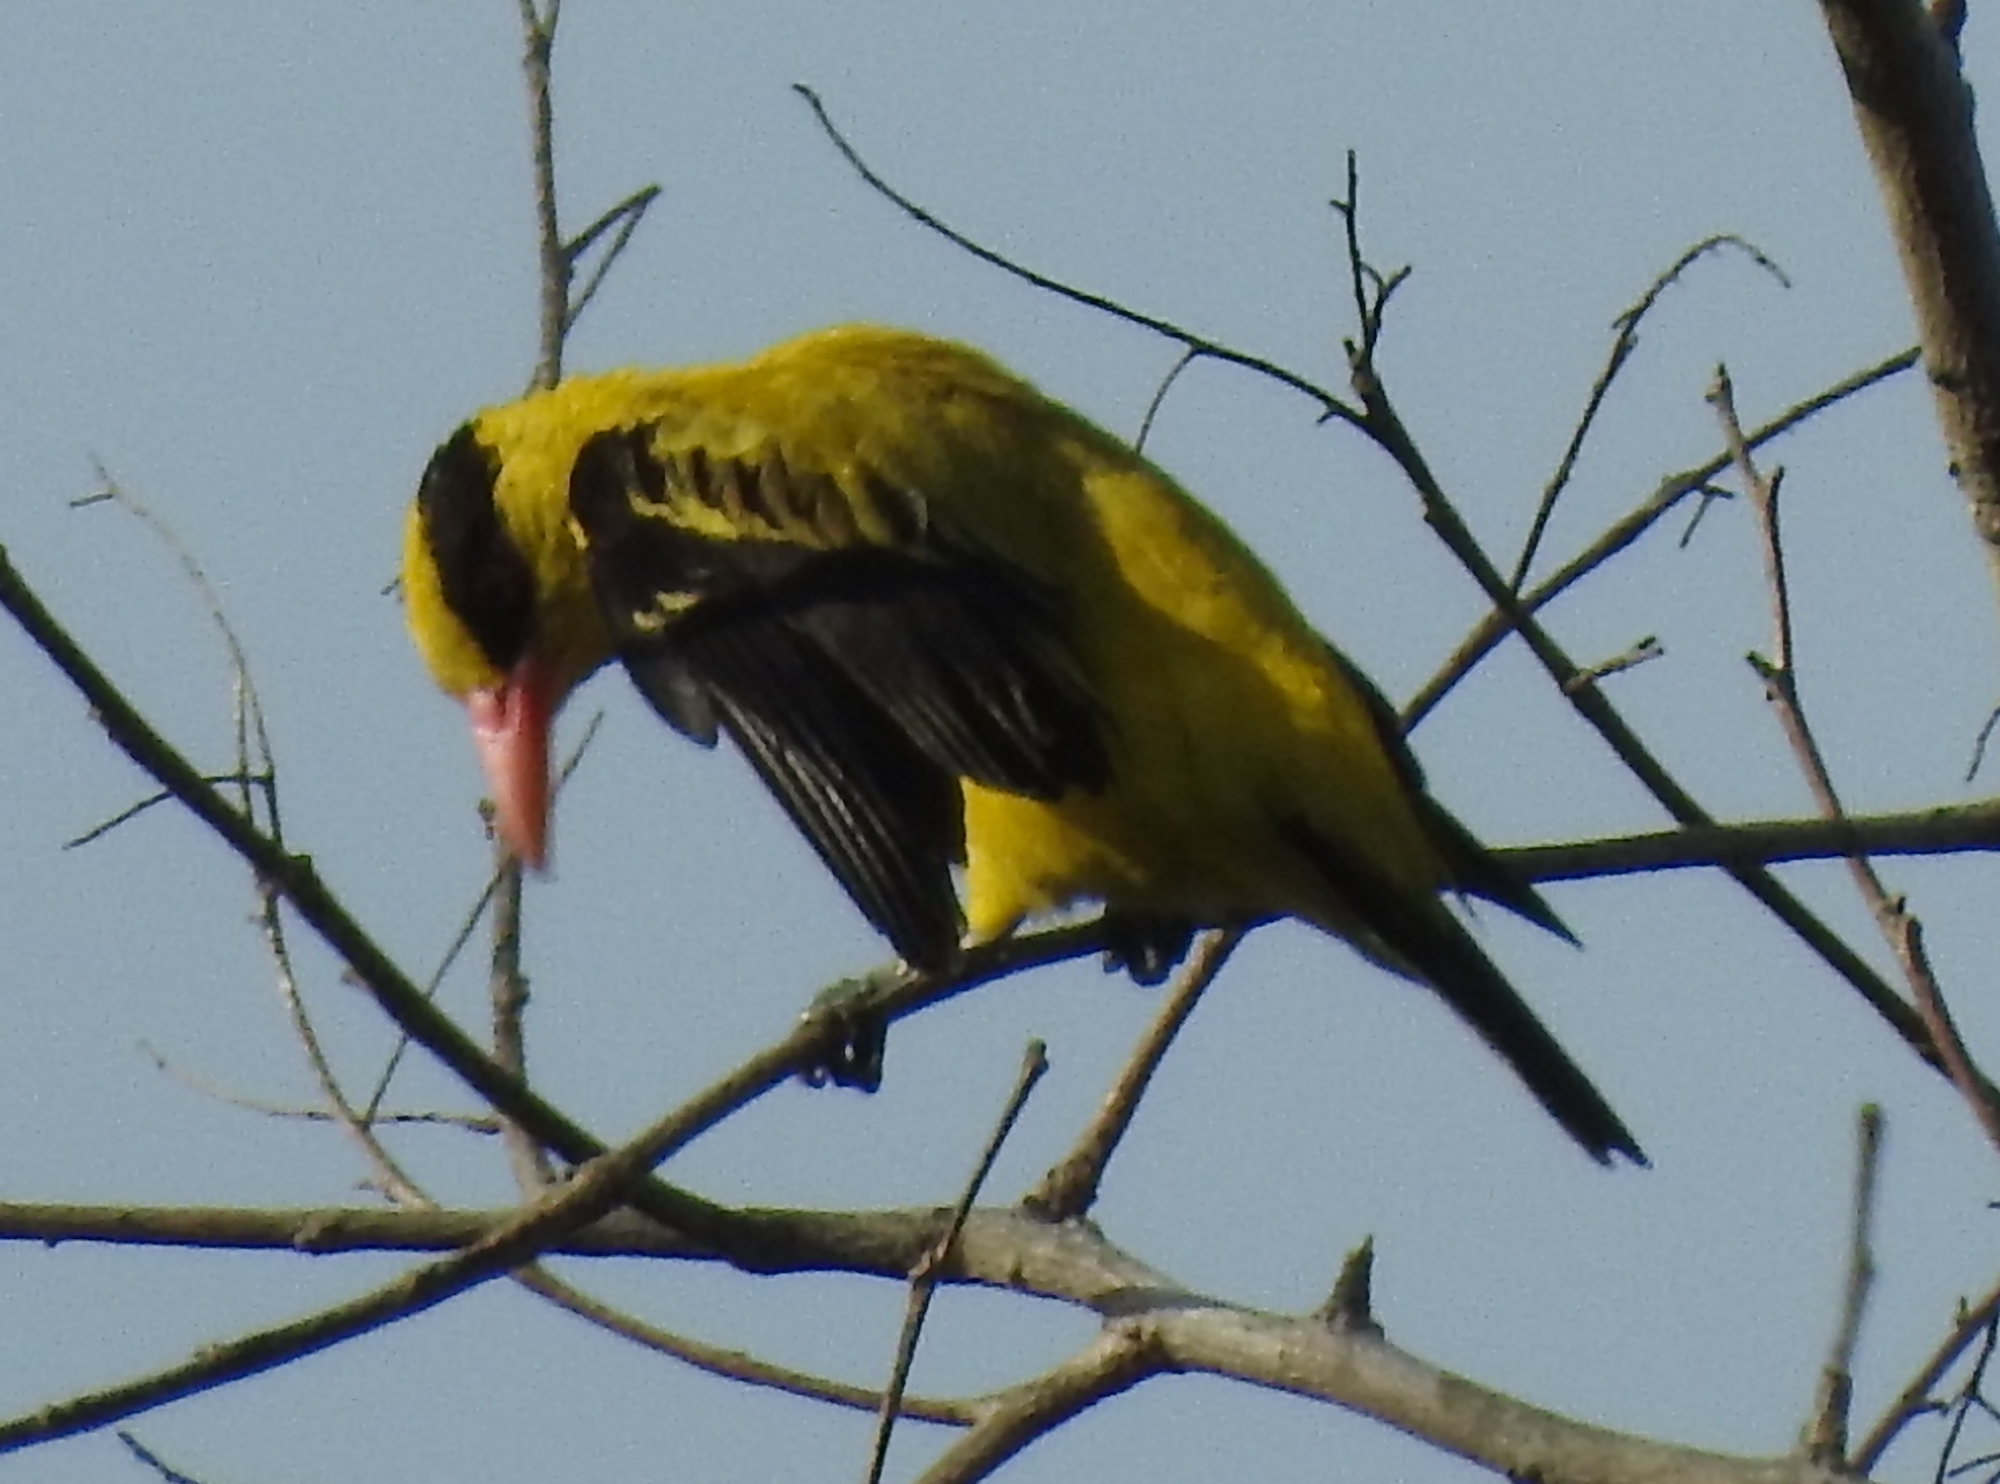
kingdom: Animalia
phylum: Chordata
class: Aves
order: Passeriformes
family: Oriolidae
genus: Oriolus
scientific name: Oriolus chinensis
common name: Black-naped oriole
